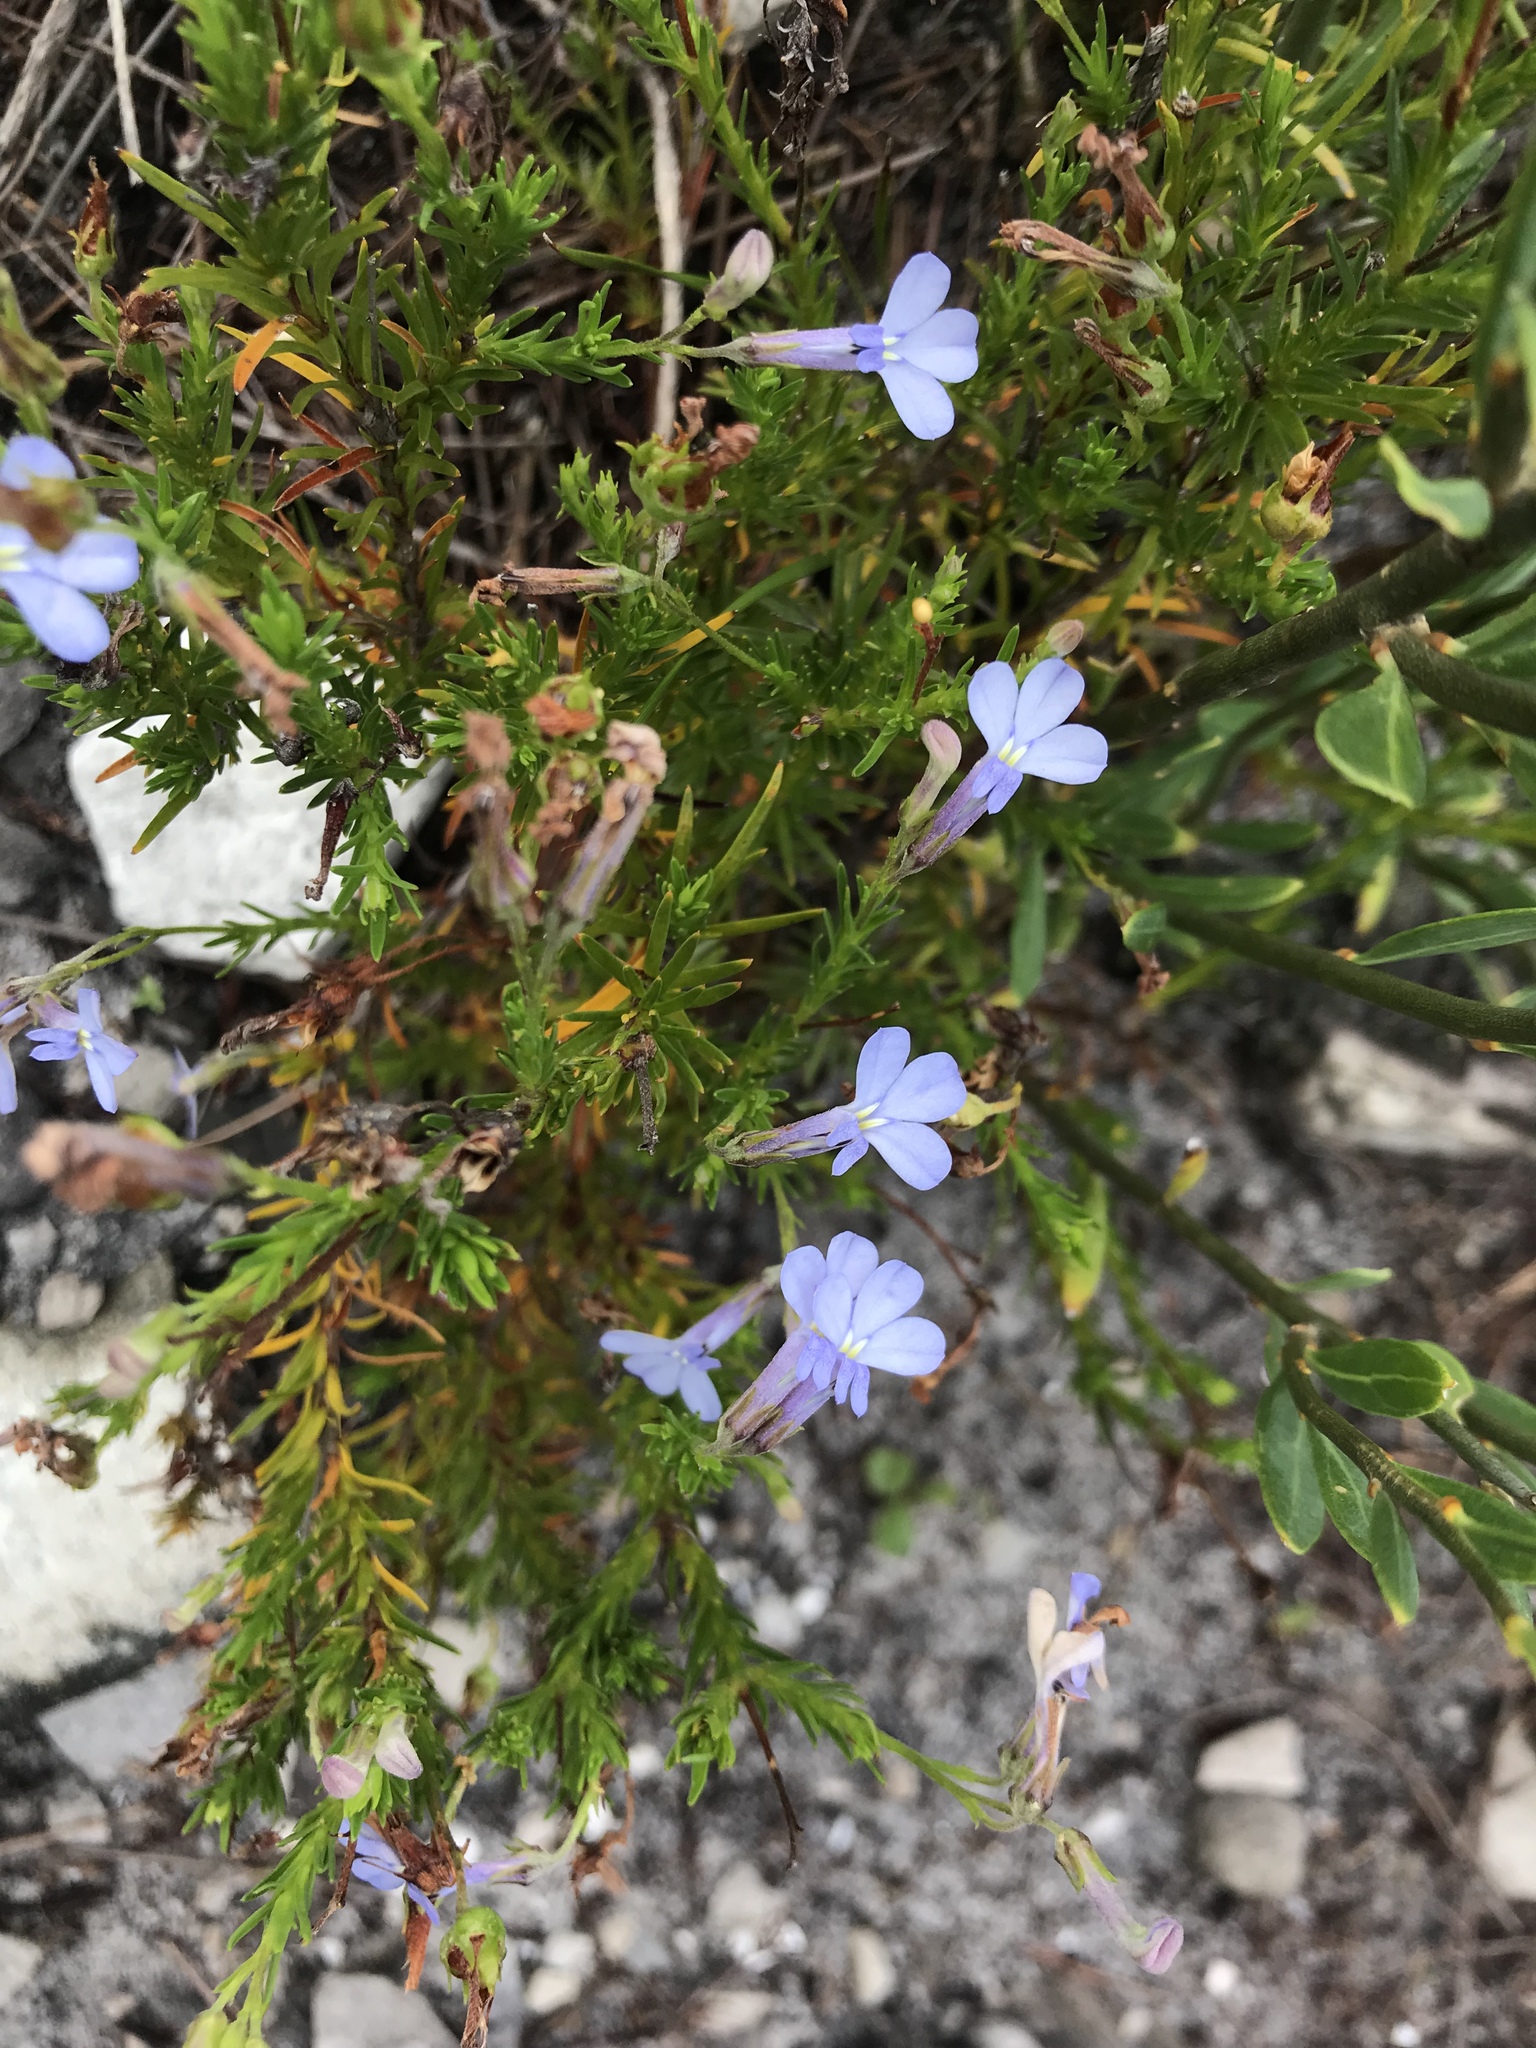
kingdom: Plantae
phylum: Tracheophyta
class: Magnoliopsida
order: Asterales
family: Campanulaceae
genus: Lobelia
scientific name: Lobelia pinifolia
